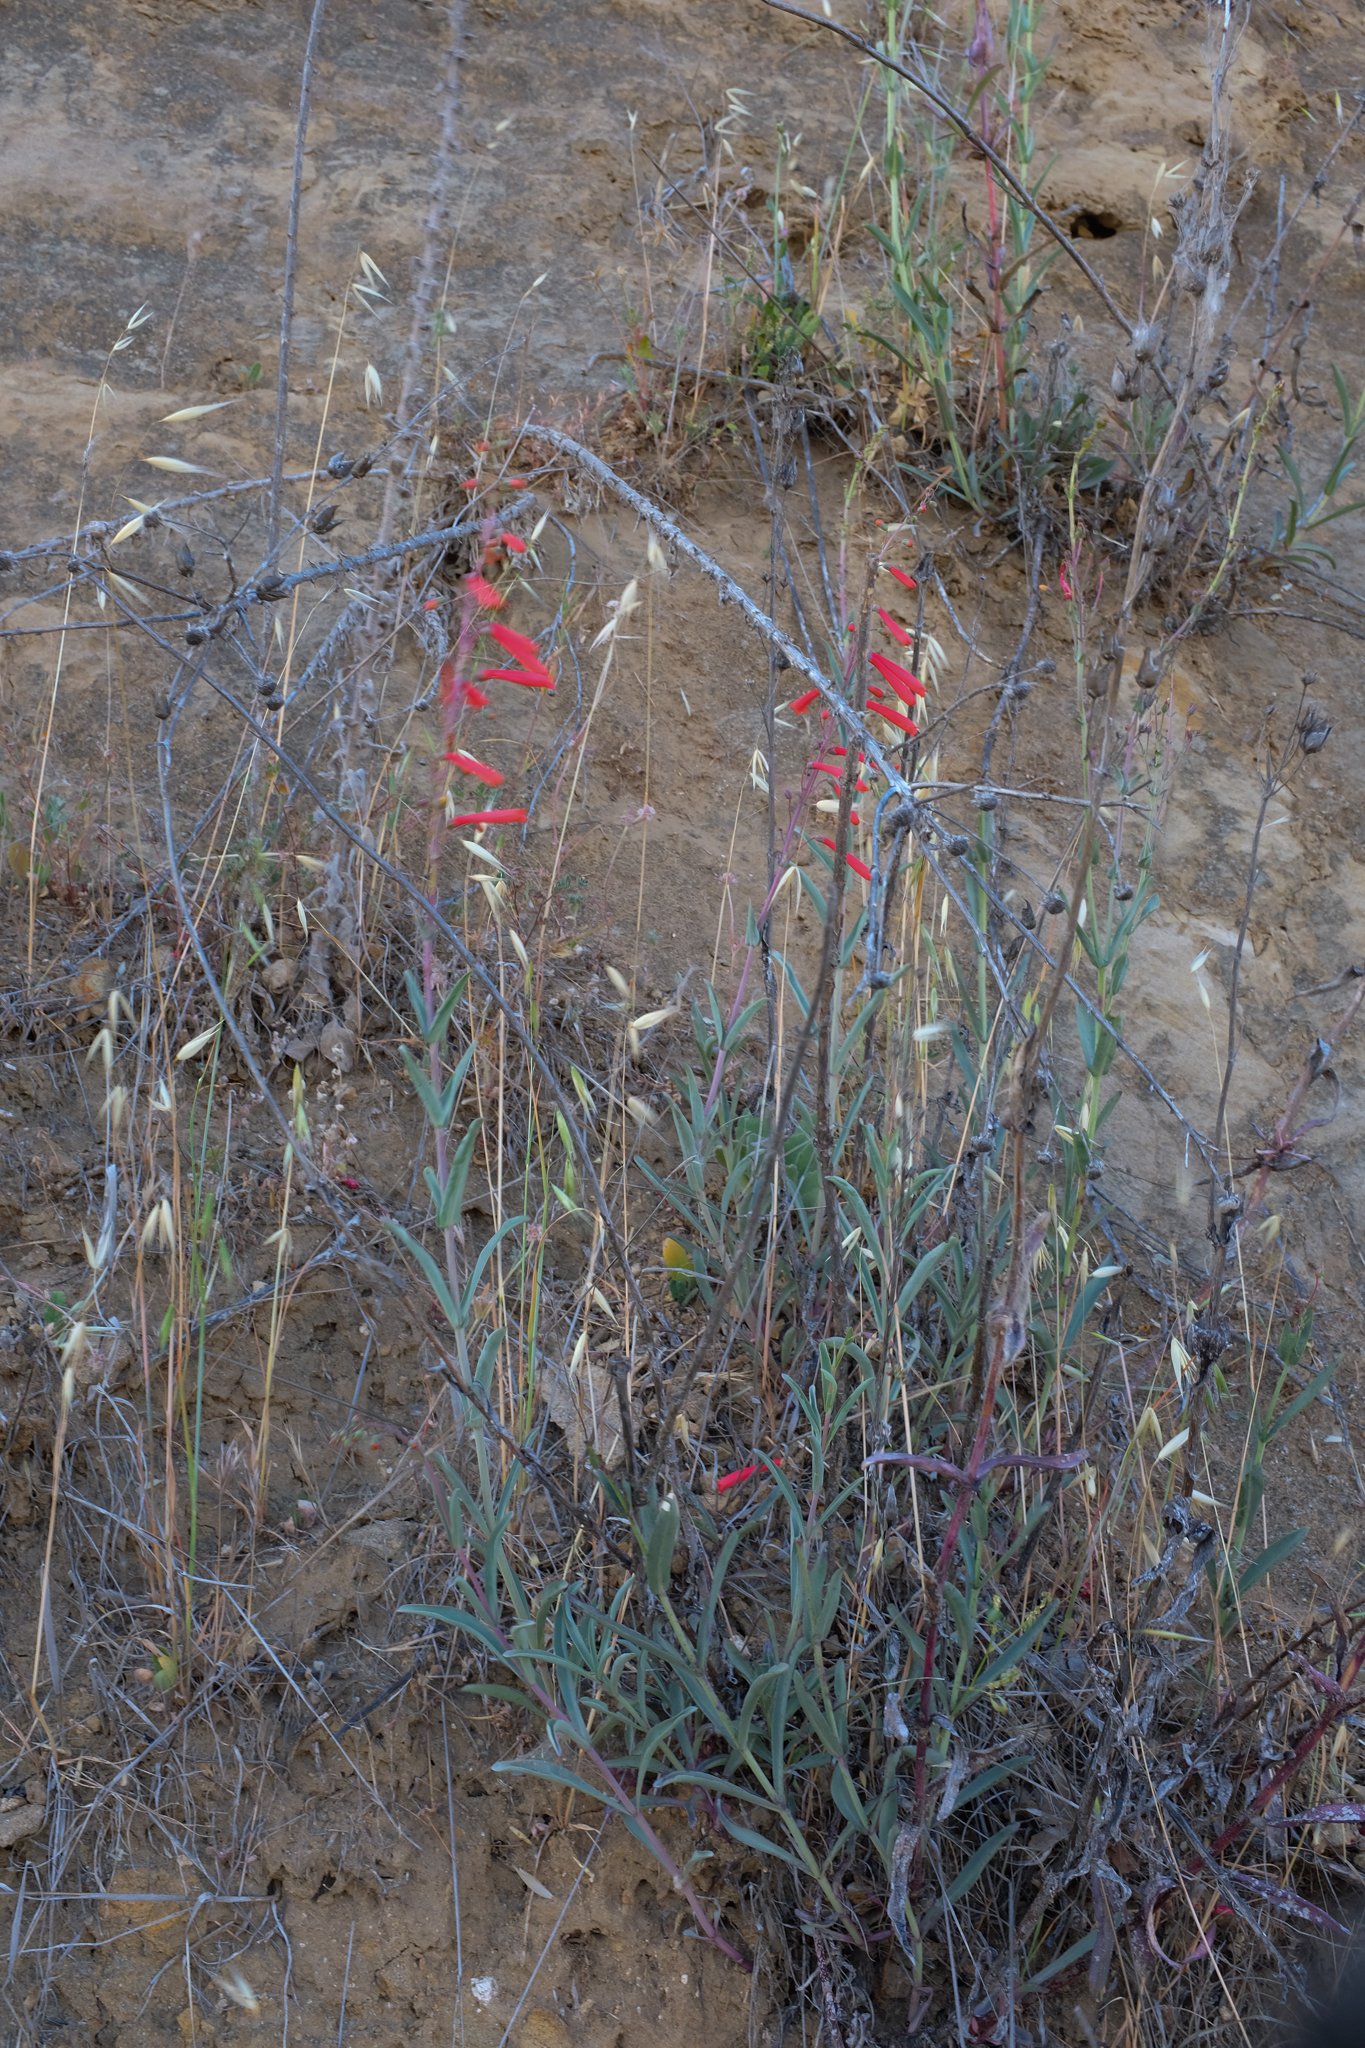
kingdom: Plantae
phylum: Tracheophyta
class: Magnoliopsida
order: Lamiales
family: Plantaginaceae
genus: Penstemon
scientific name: Penstemon centranthifolius
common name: Scarlet bugler
